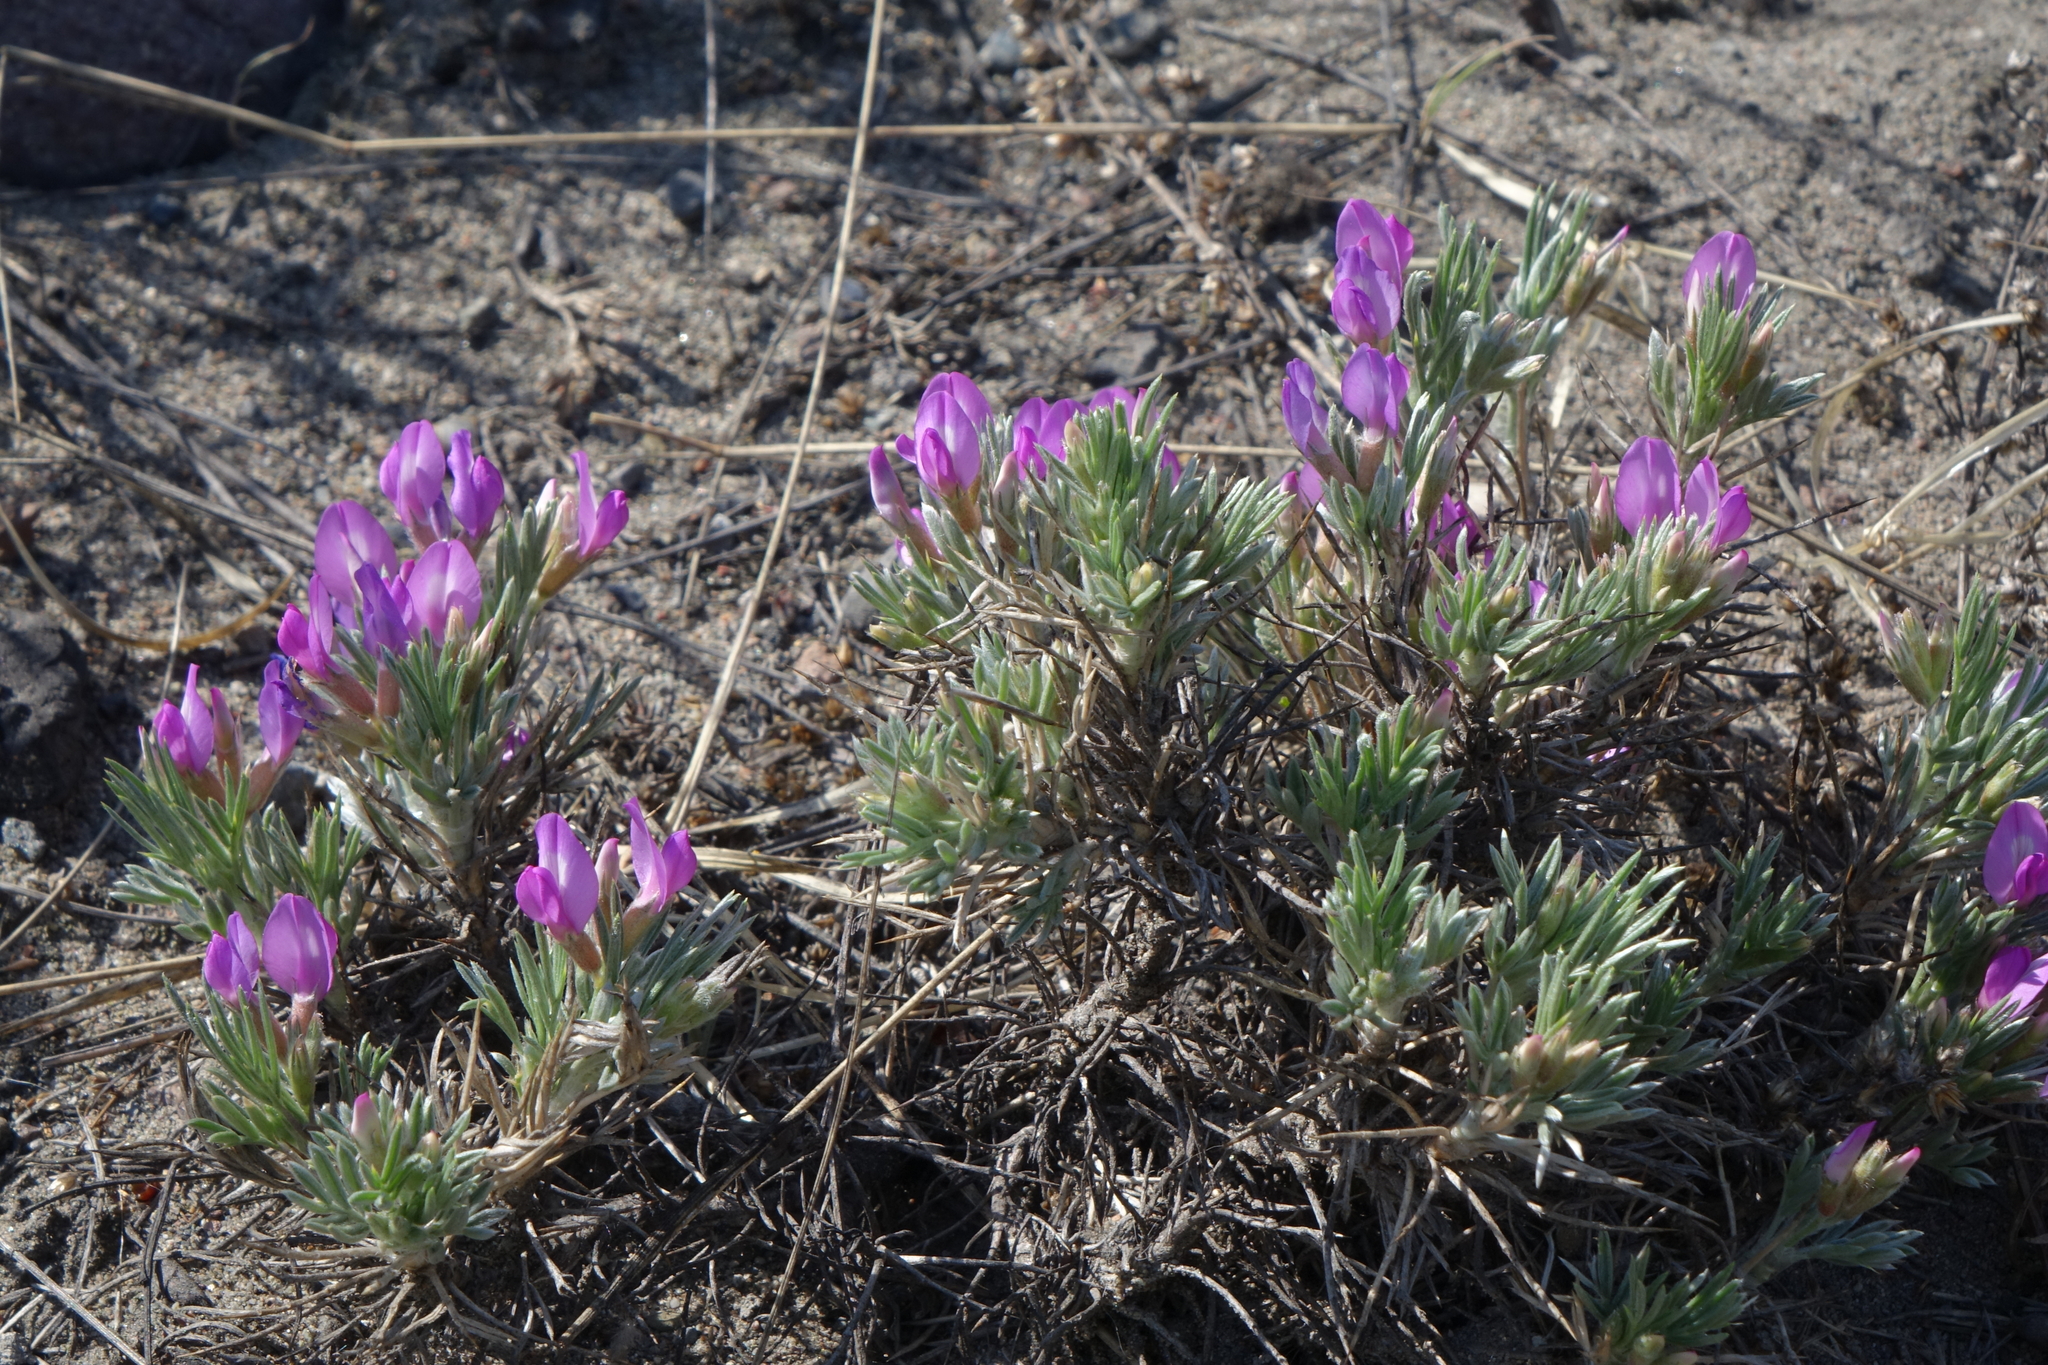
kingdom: Plantae
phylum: Tracheophyta
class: Magnoliopsida
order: Fabales
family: Fabaceae
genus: Oxytropis
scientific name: Oxytropis borissoviae
